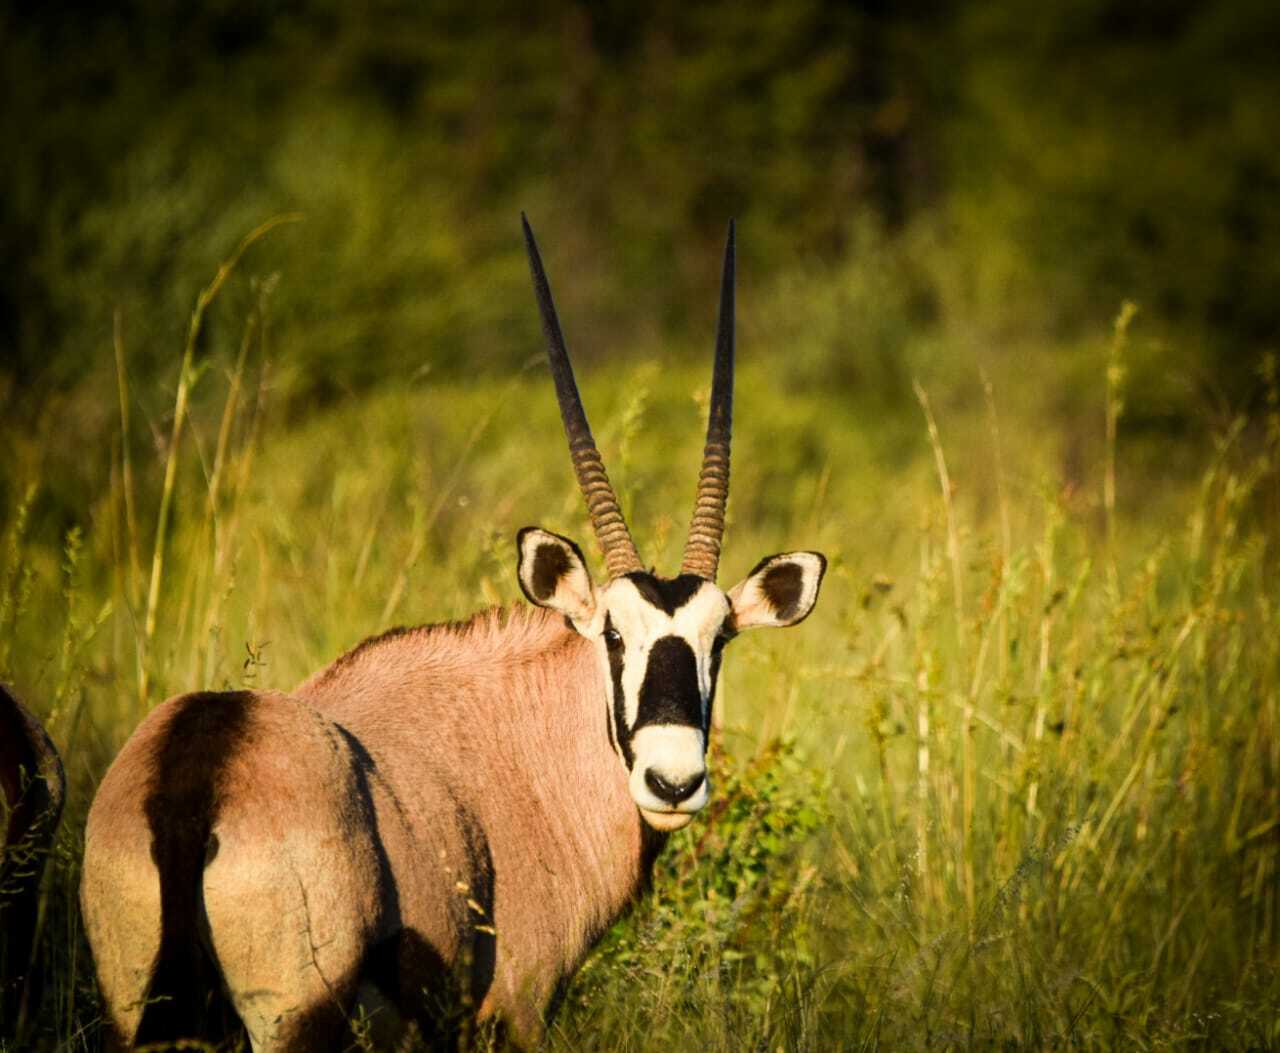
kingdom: Animalia
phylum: Chordata
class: Mammalia
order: Artiodactyla
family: Bovidae
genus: Oryx
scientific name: Oryx gazella
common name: Gemsbok
